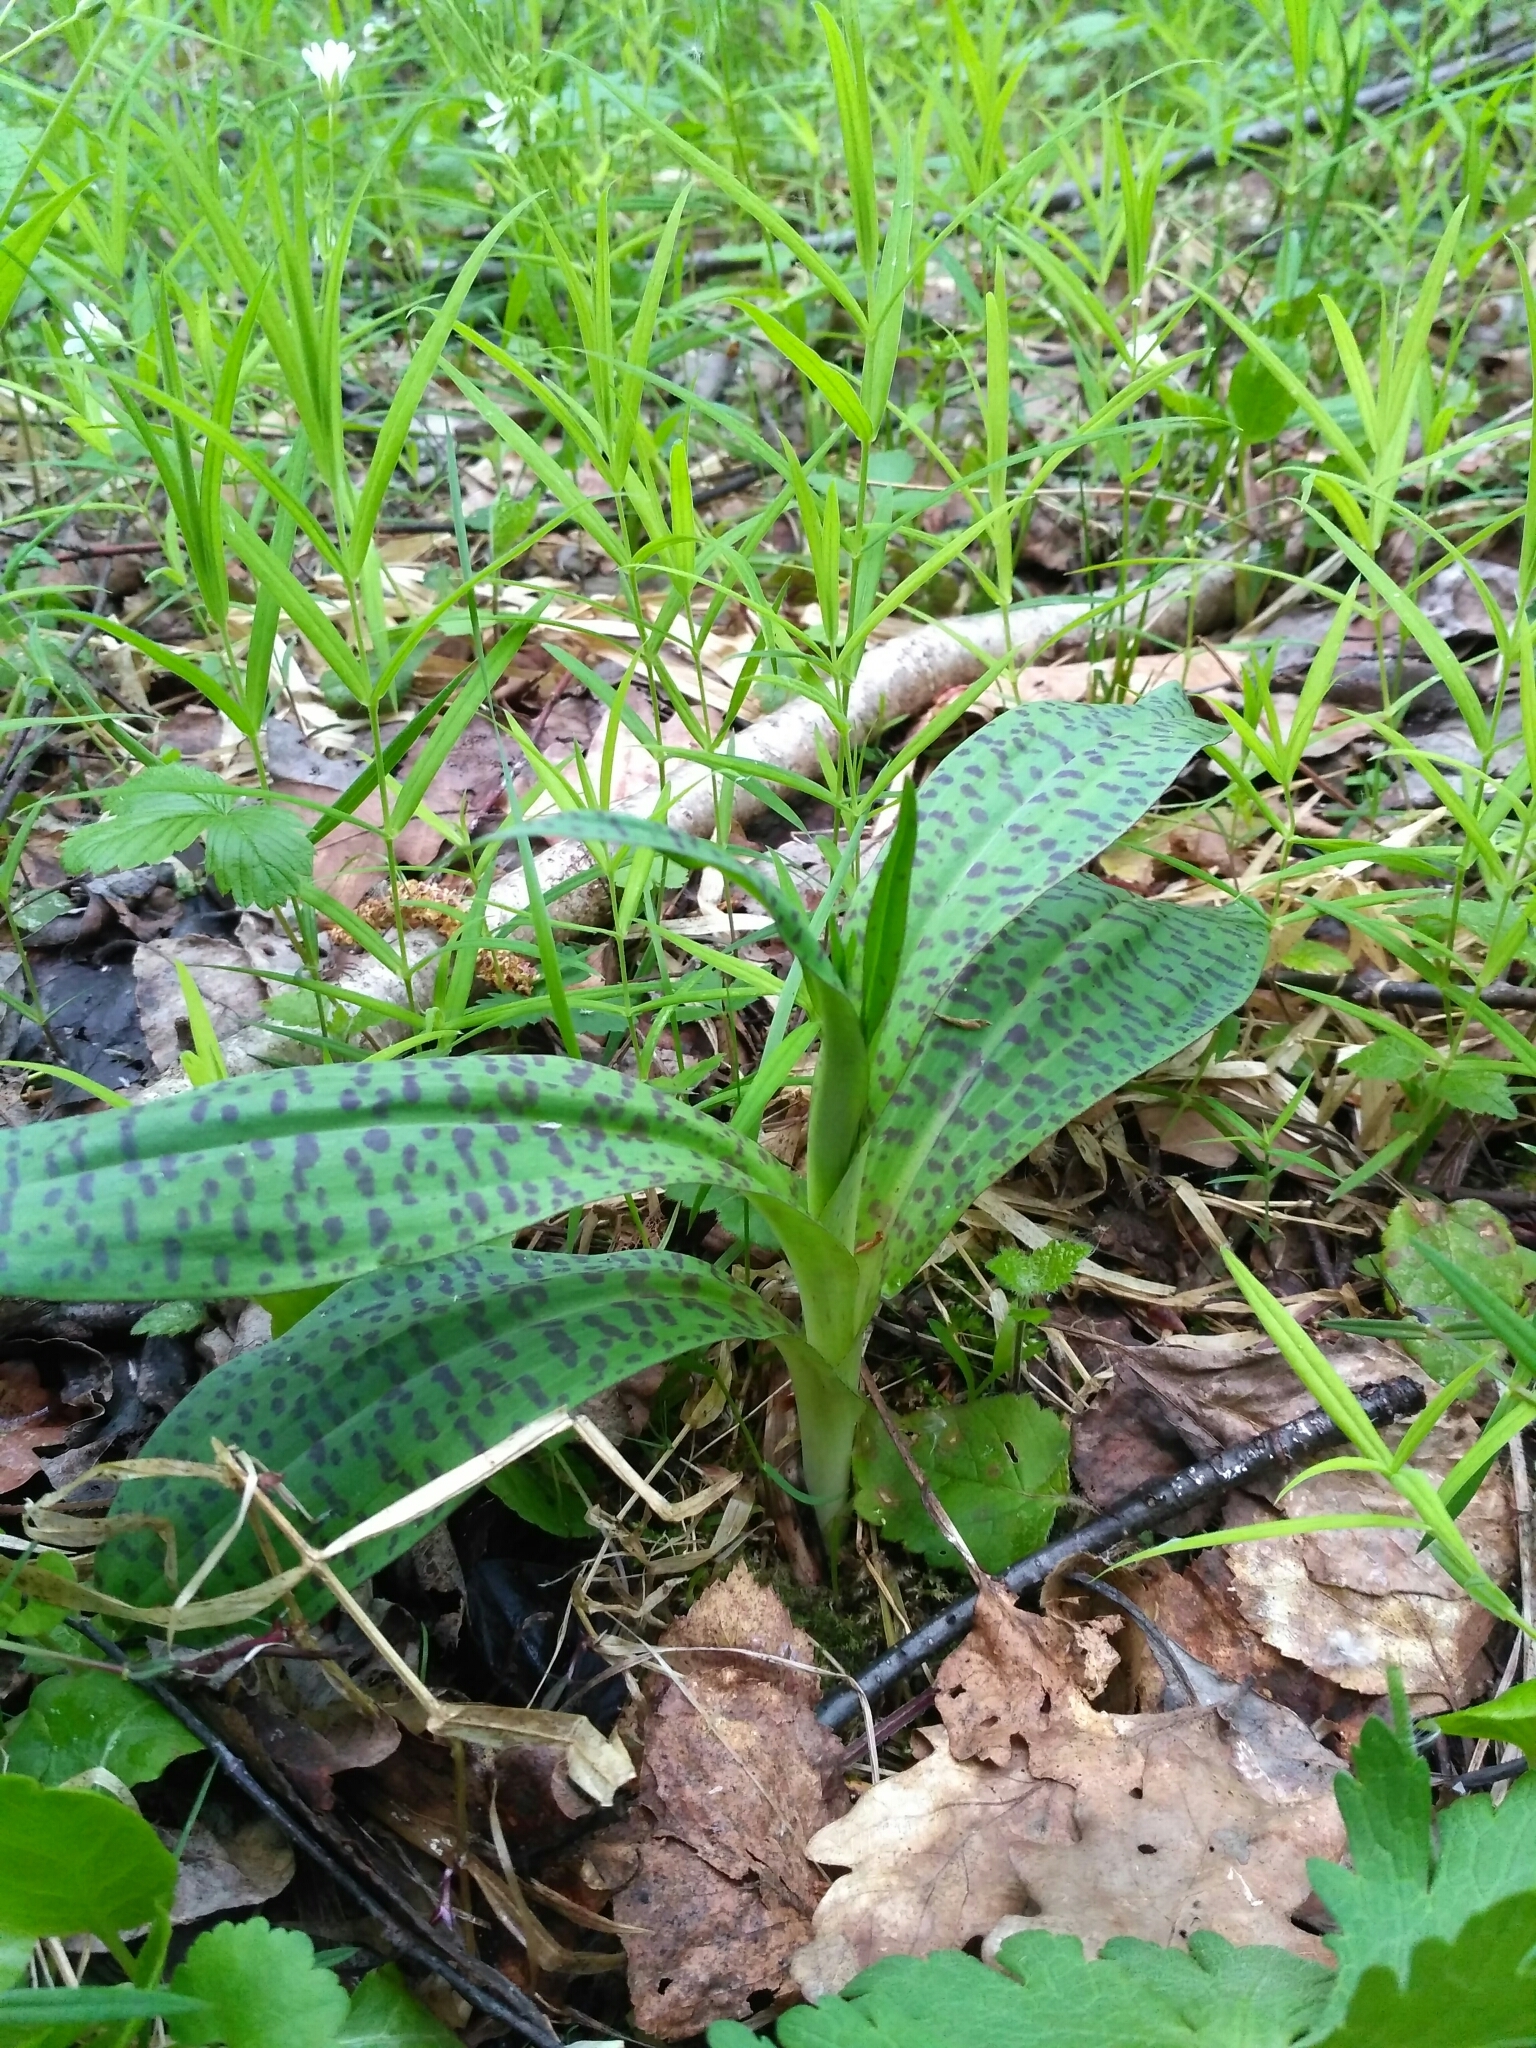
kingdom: Plantae
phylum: Tracheophyta
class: Liliopsida
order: Asparagales
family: Orchidaceae
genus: Dactylorhiza
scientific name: Dactylorhiza maculata
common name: Heath spotted-orchid
